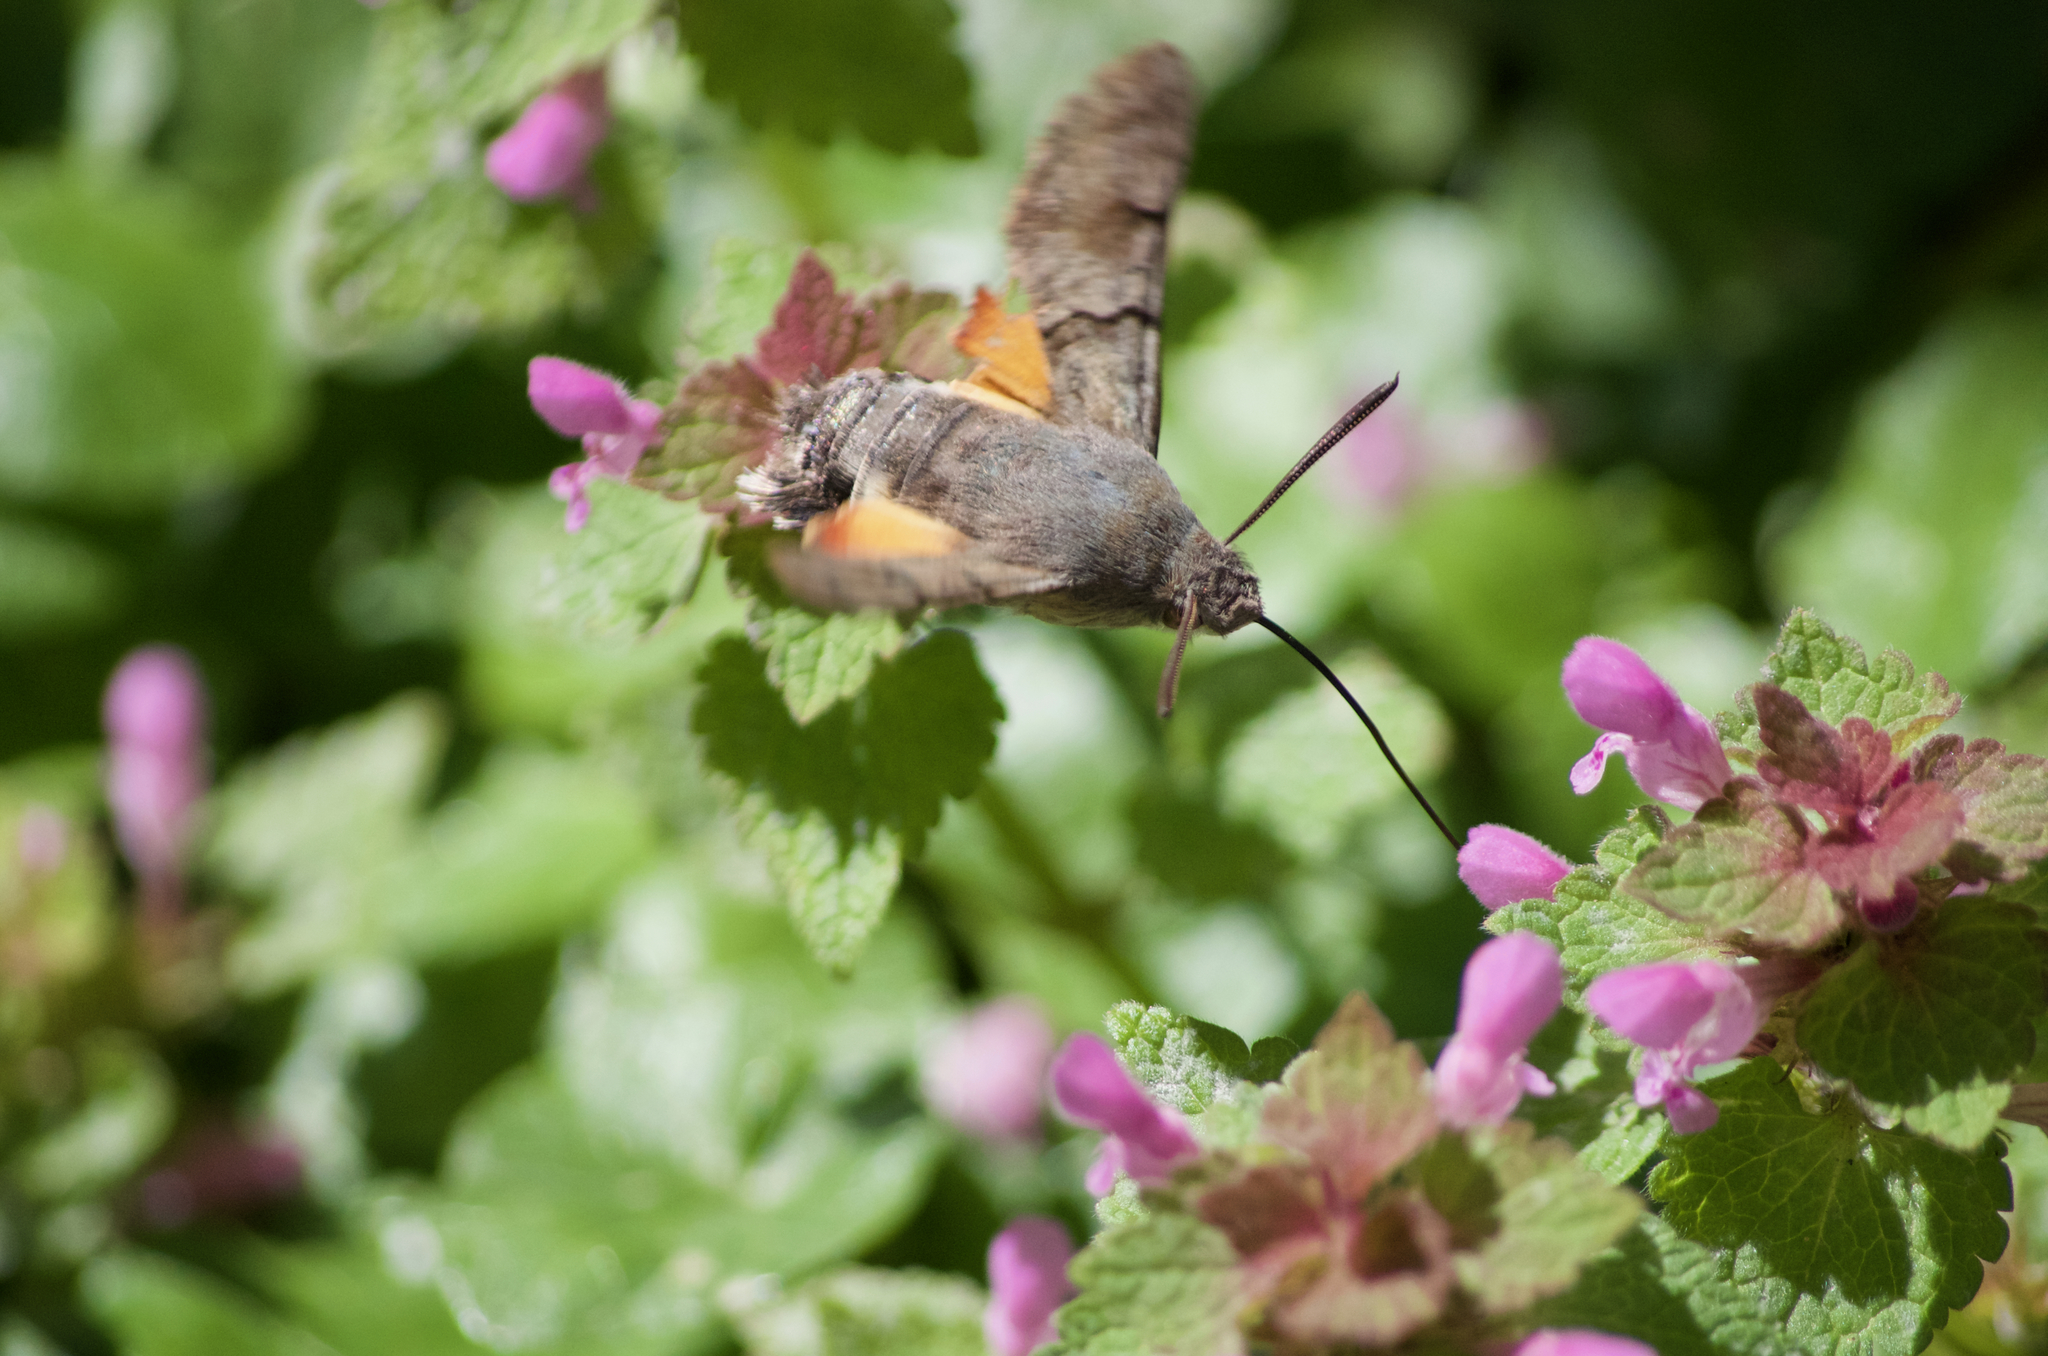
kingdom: Animalia
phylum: Arthropoda
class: Insecta
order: Lepidoptera
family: Sphingidae
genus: Macroglossum
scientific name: Macroglossum stellatarum
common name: Humming-bird hawk-moth
